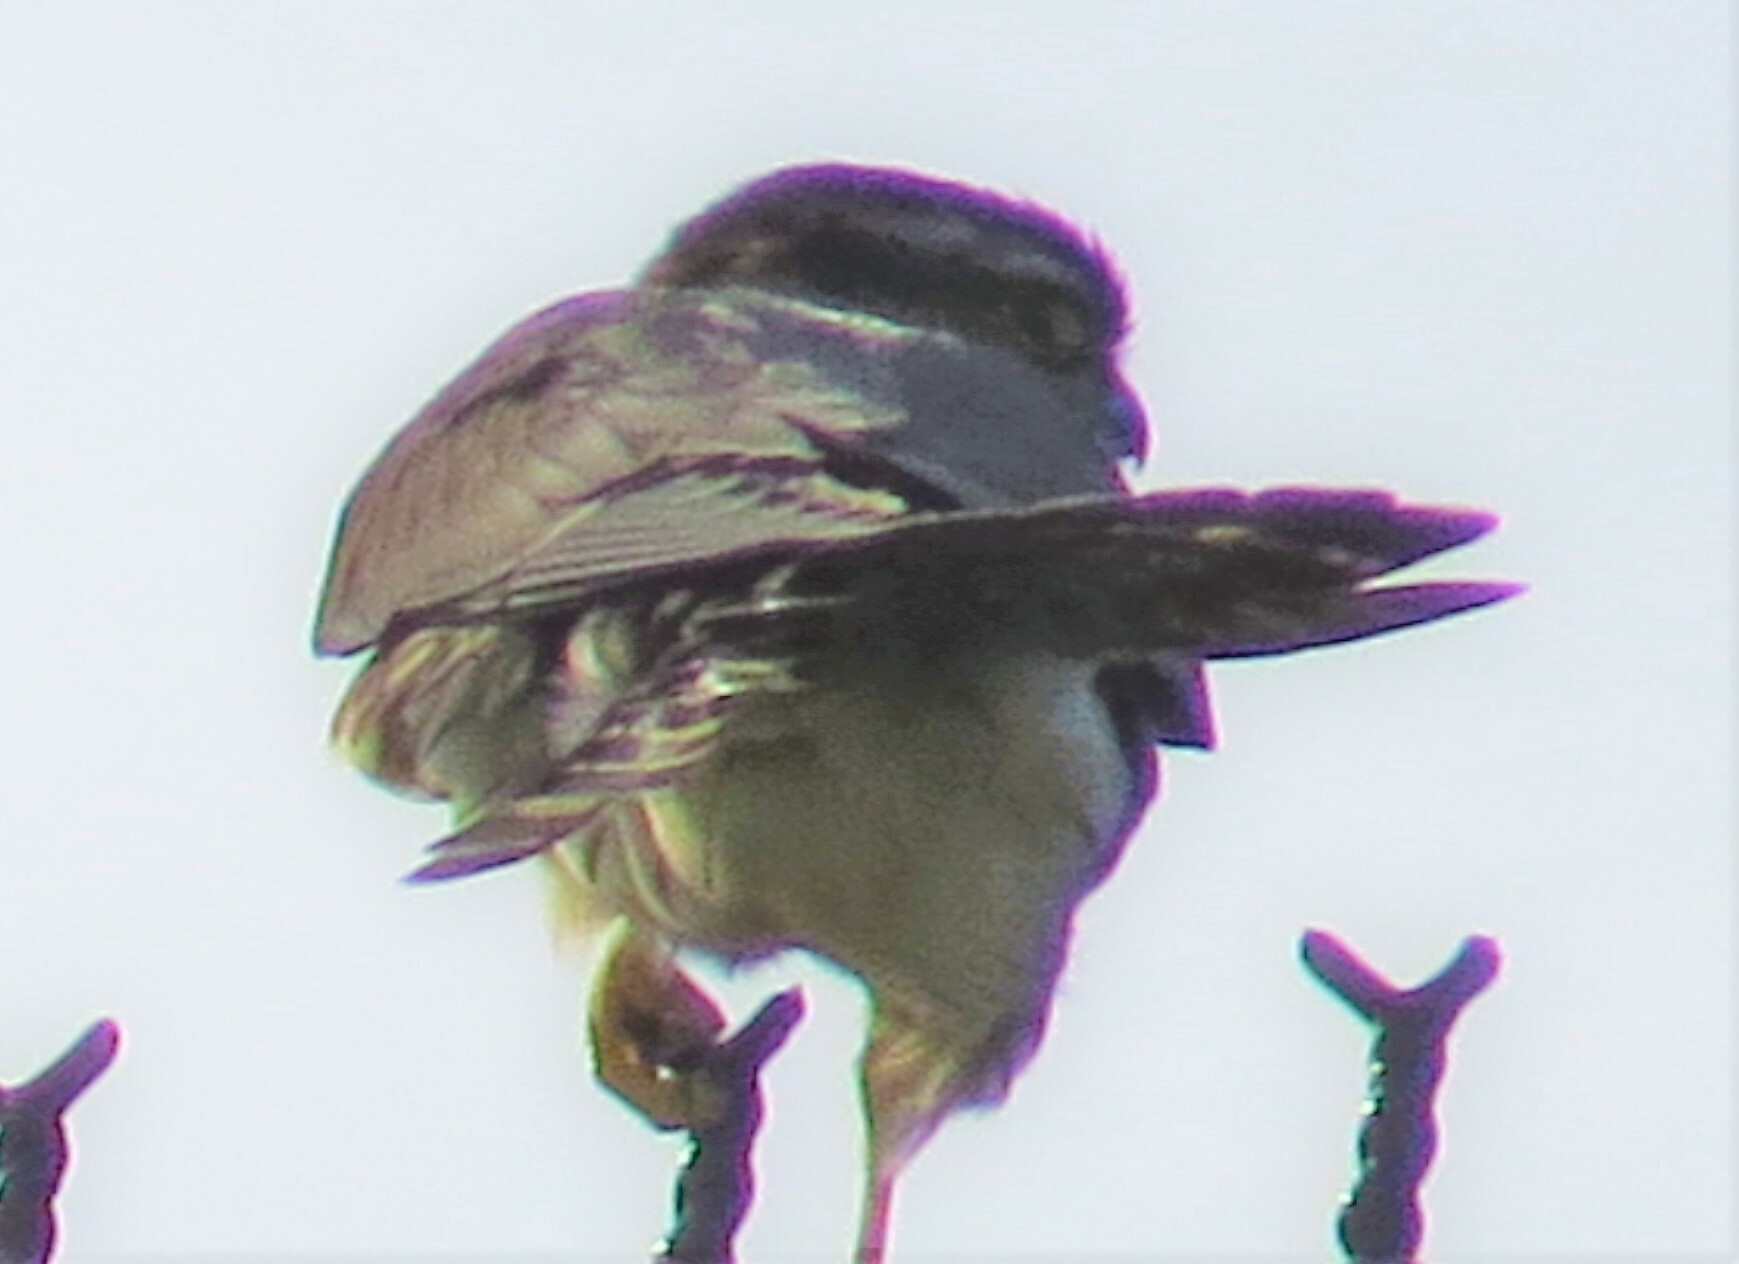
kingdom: Animalia
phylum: Chordata
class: Aves
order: Falconiformes
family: Falconidae
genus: Falco
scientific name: Falco columbarius
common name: Merlin
